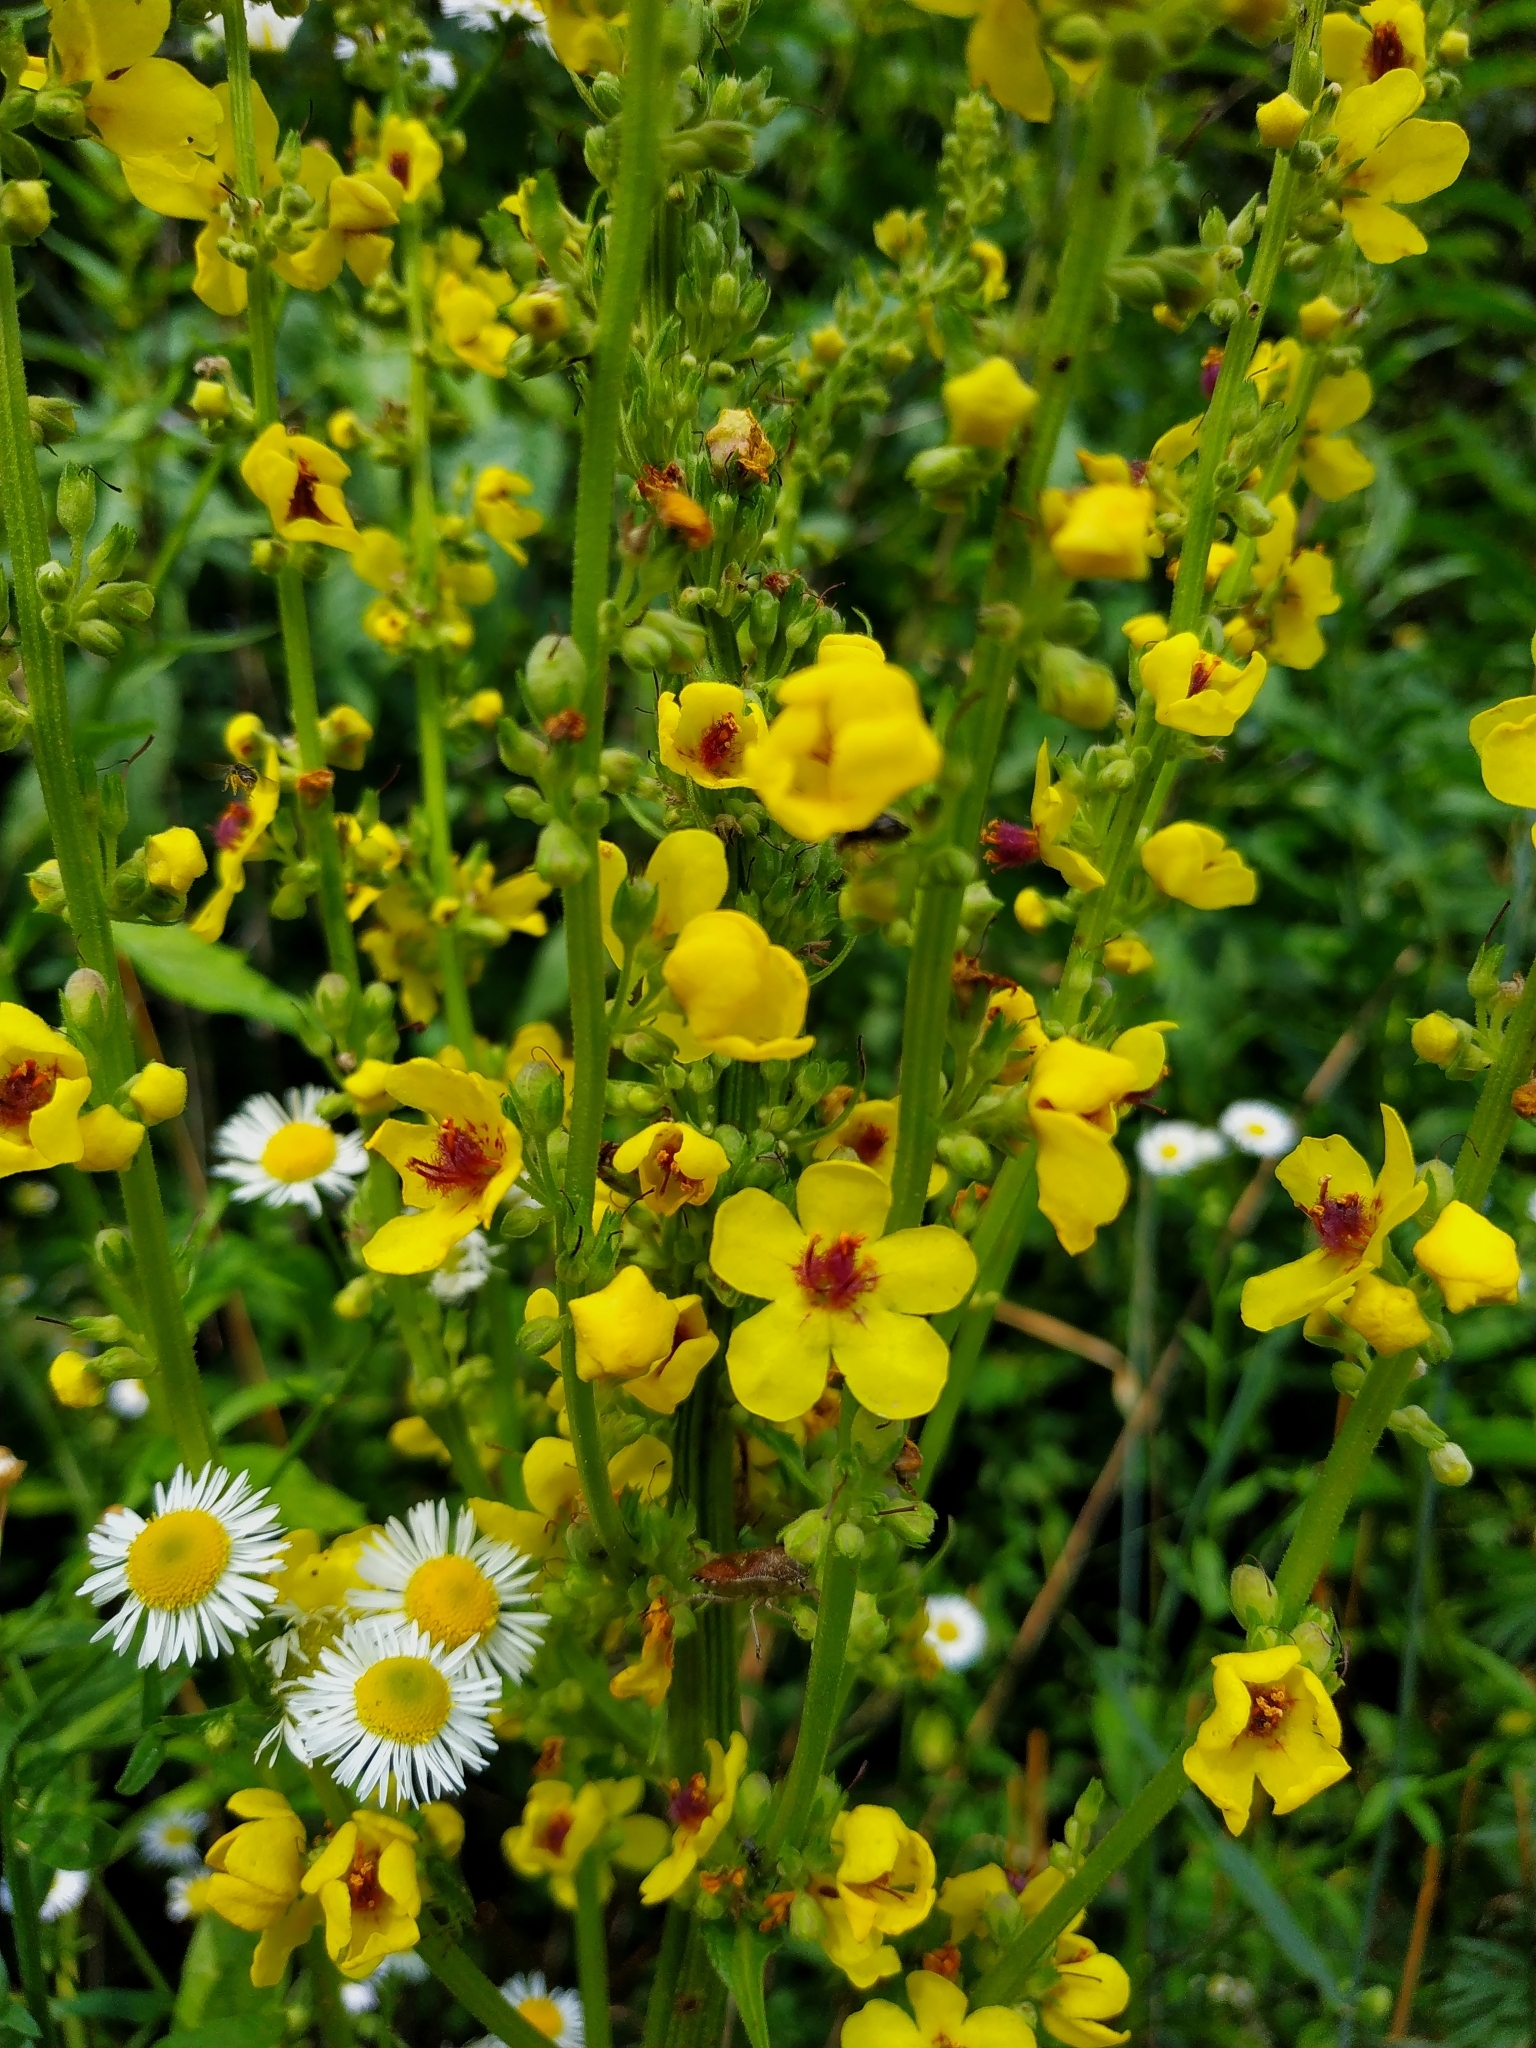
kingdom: Plantae
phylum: Tracheophyta
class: Magnoliopsida
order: Lamiales
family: Scrophulariaceae
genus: Verbascum
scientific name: Verbascum nigrum
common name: Dark mullein
